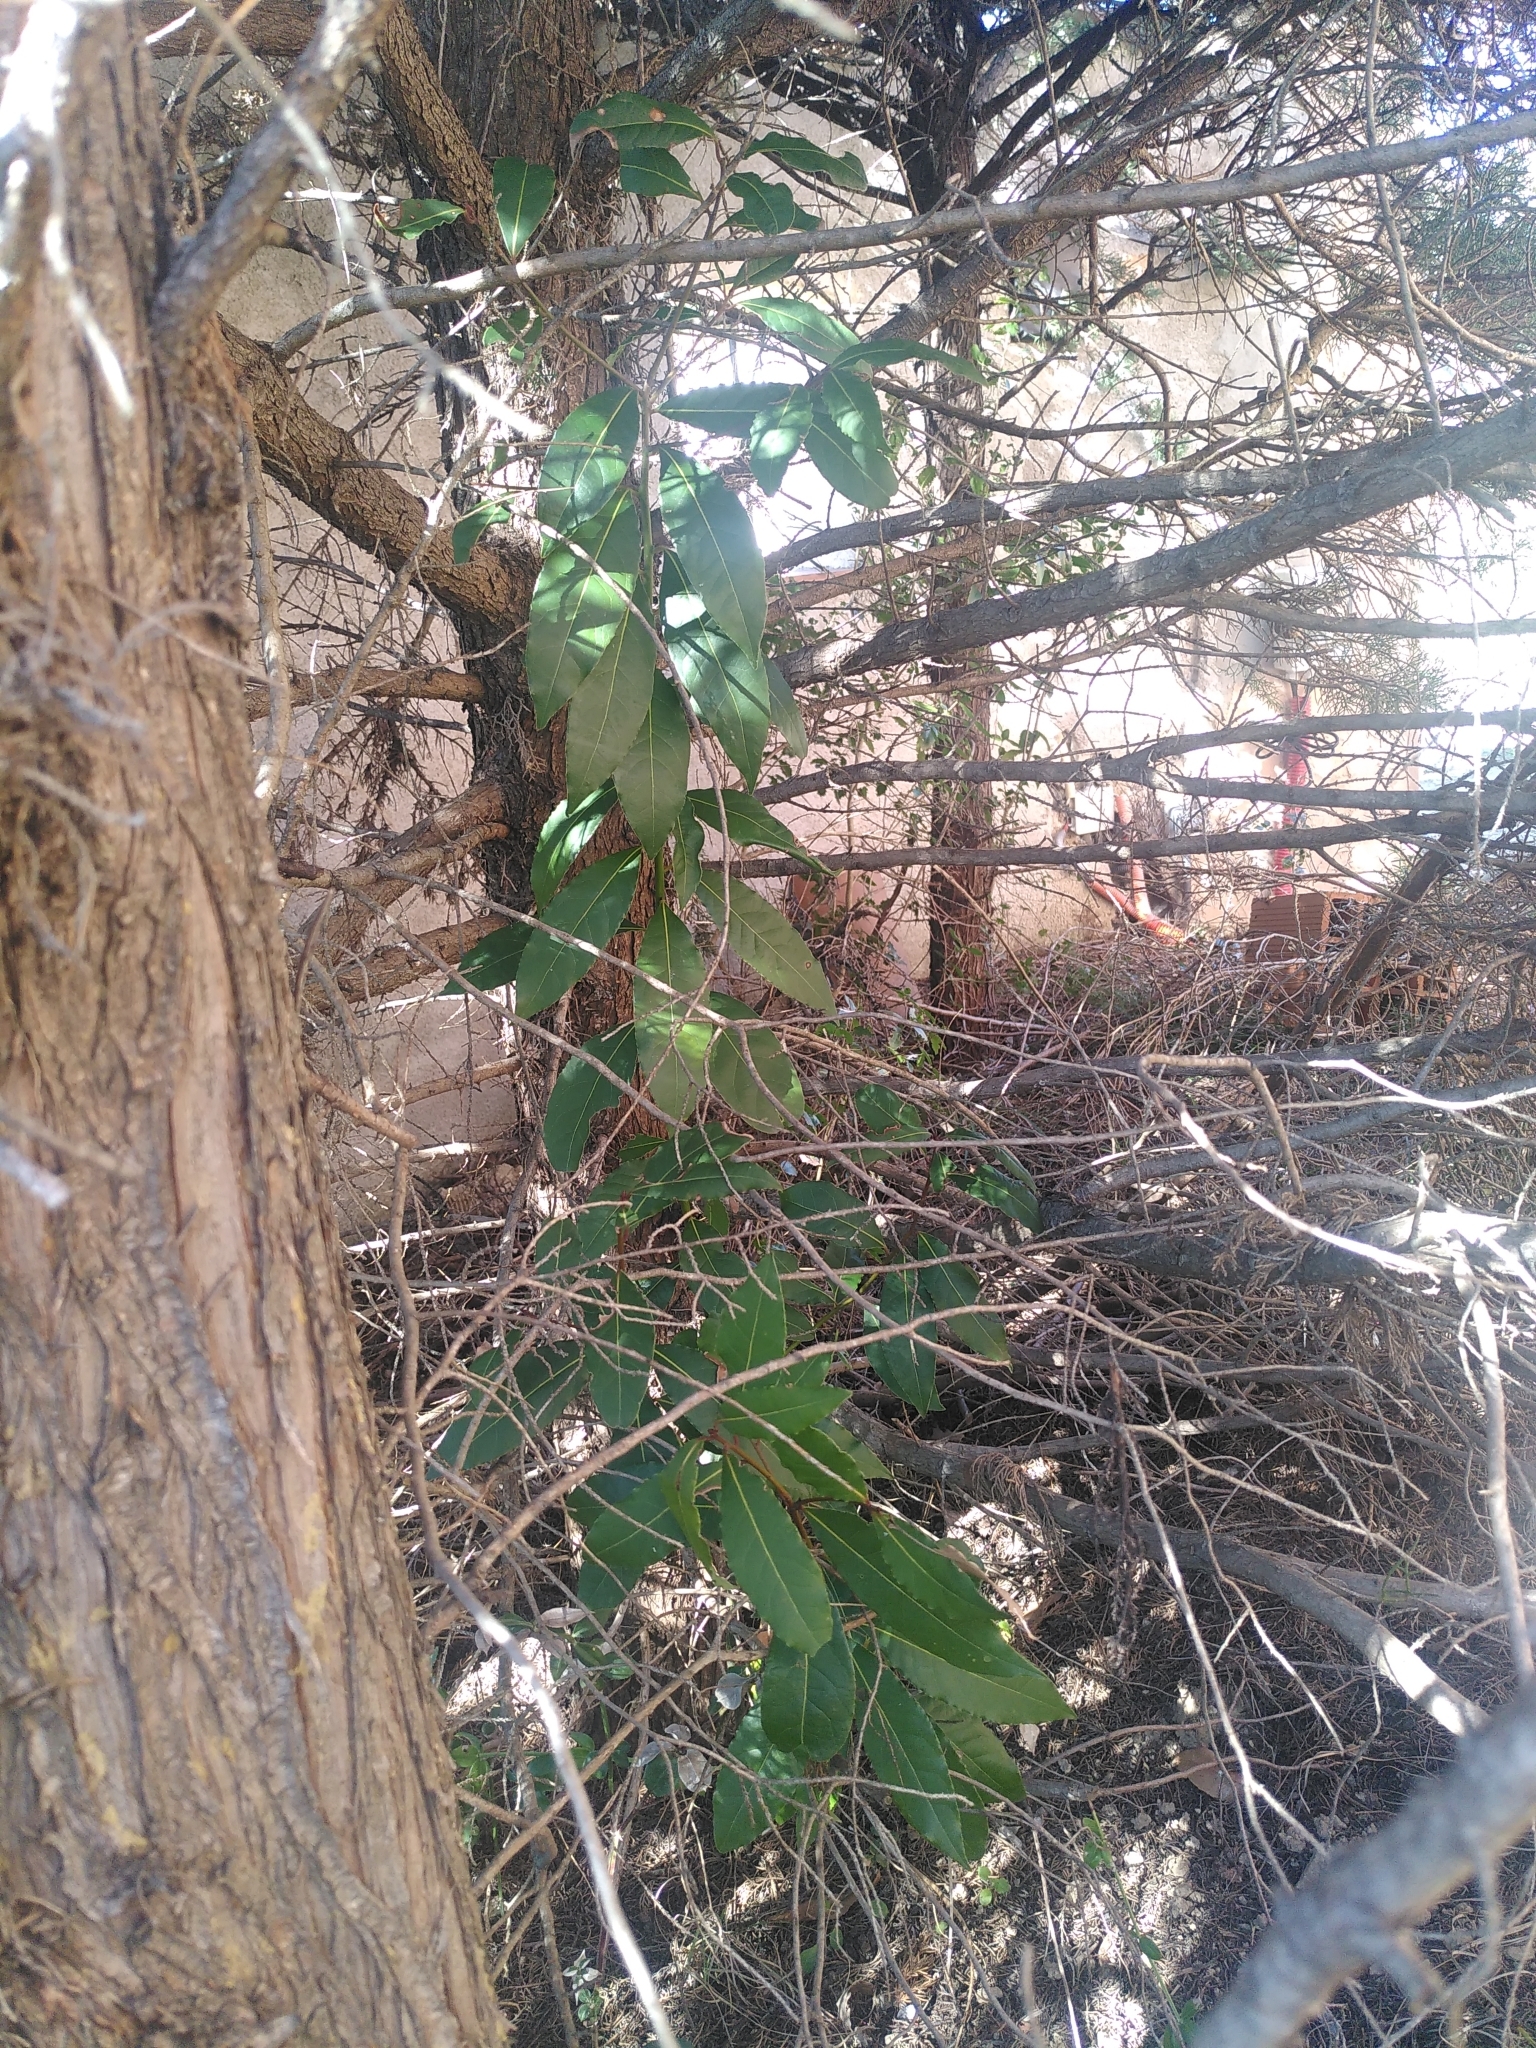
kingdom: Plantae
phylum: Tracheophyta
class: Magnoliopsida
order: Laurales
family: Lauraceae
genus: Laurus
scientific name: Laurus nobilis
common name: Bay
